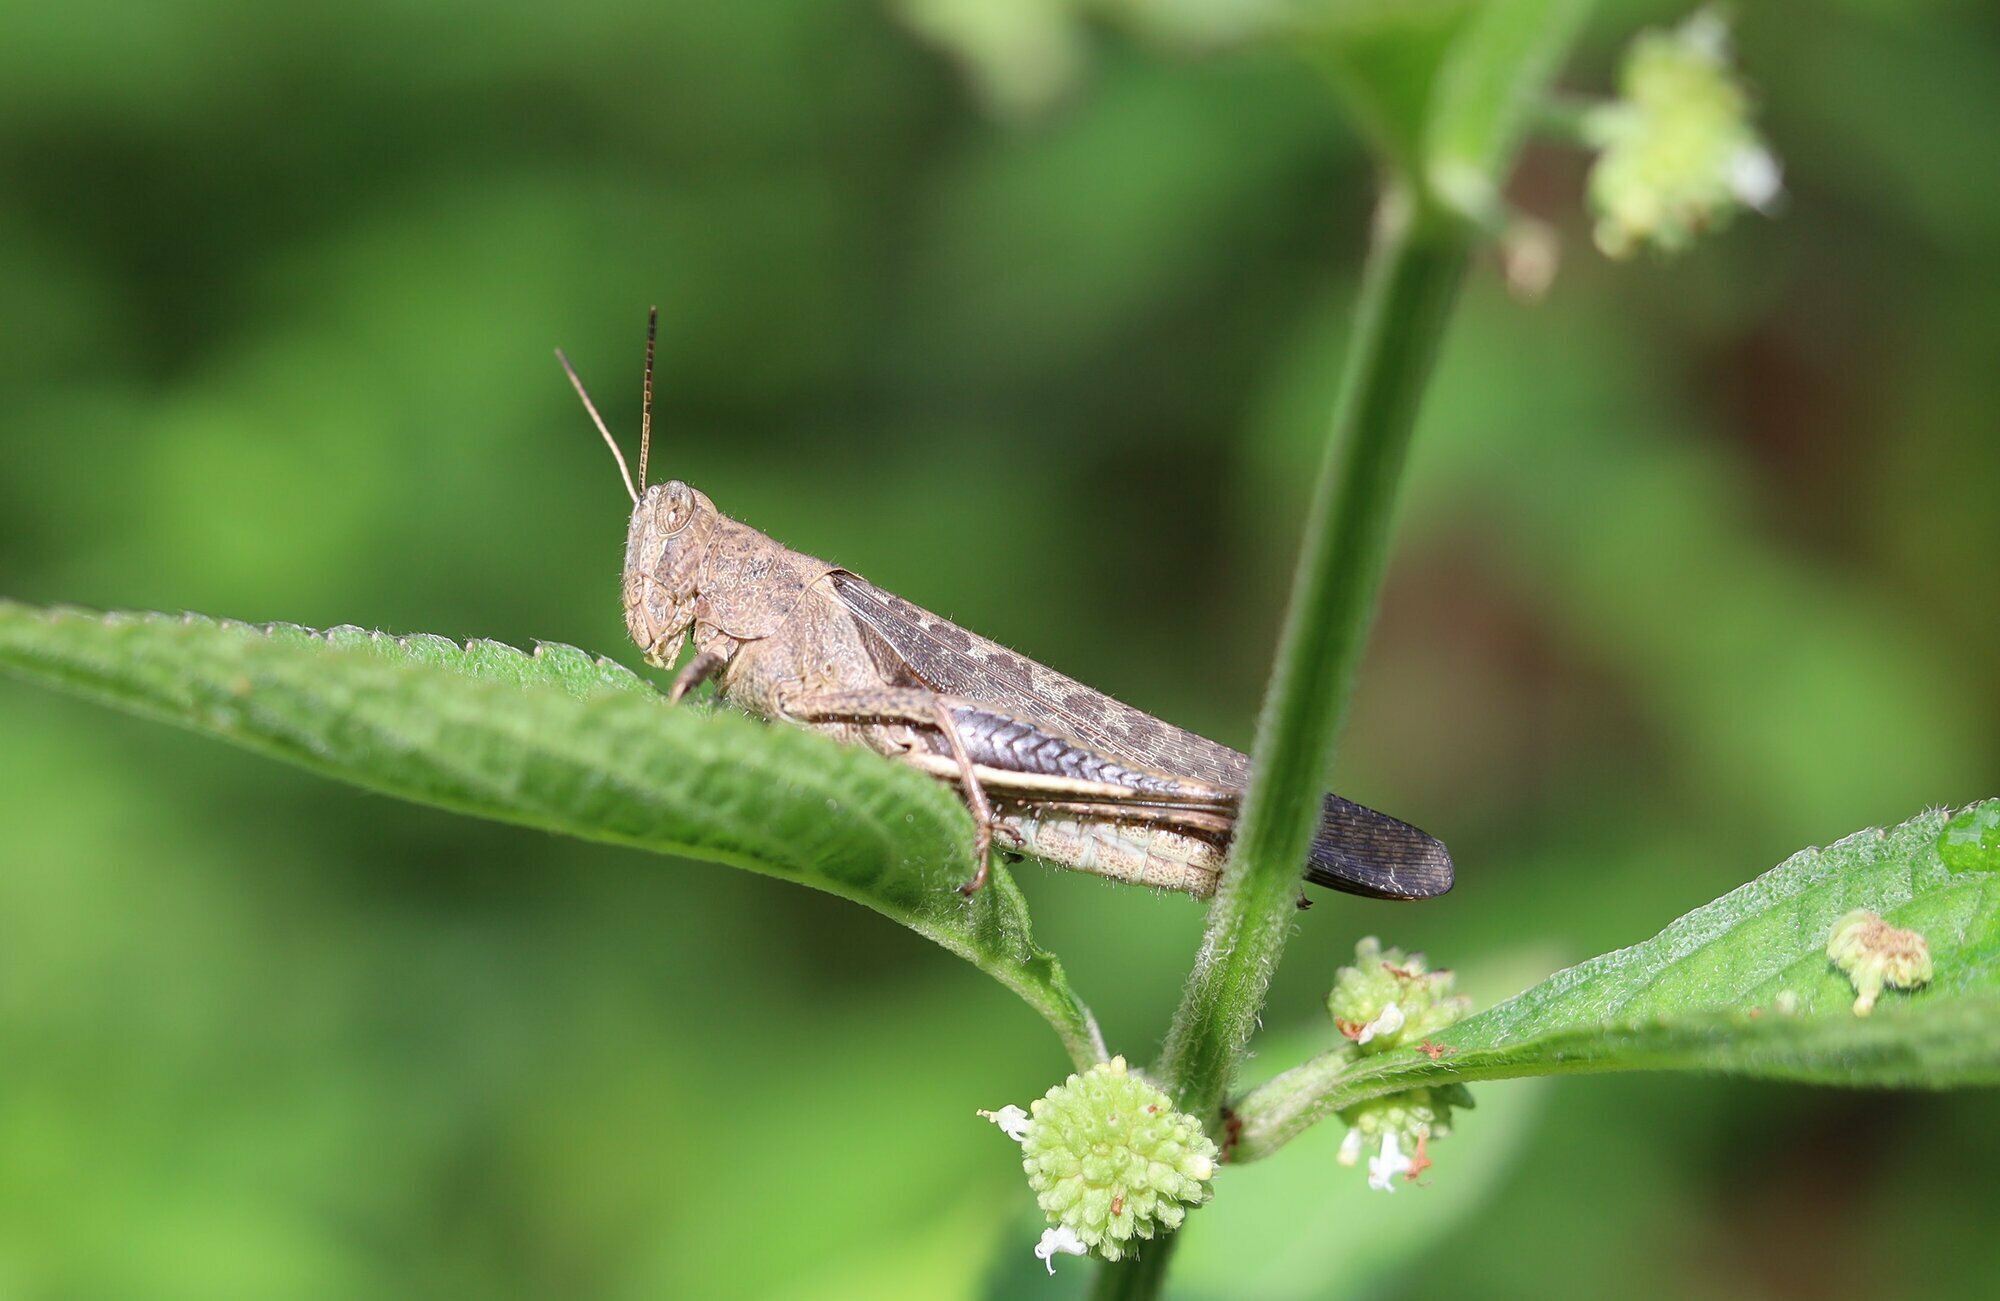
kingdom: Animalia
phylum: Arthropoda
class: Insecta
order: Orthoptera
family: Acrididae
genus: Abracris
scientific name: Abracris flavolineata
